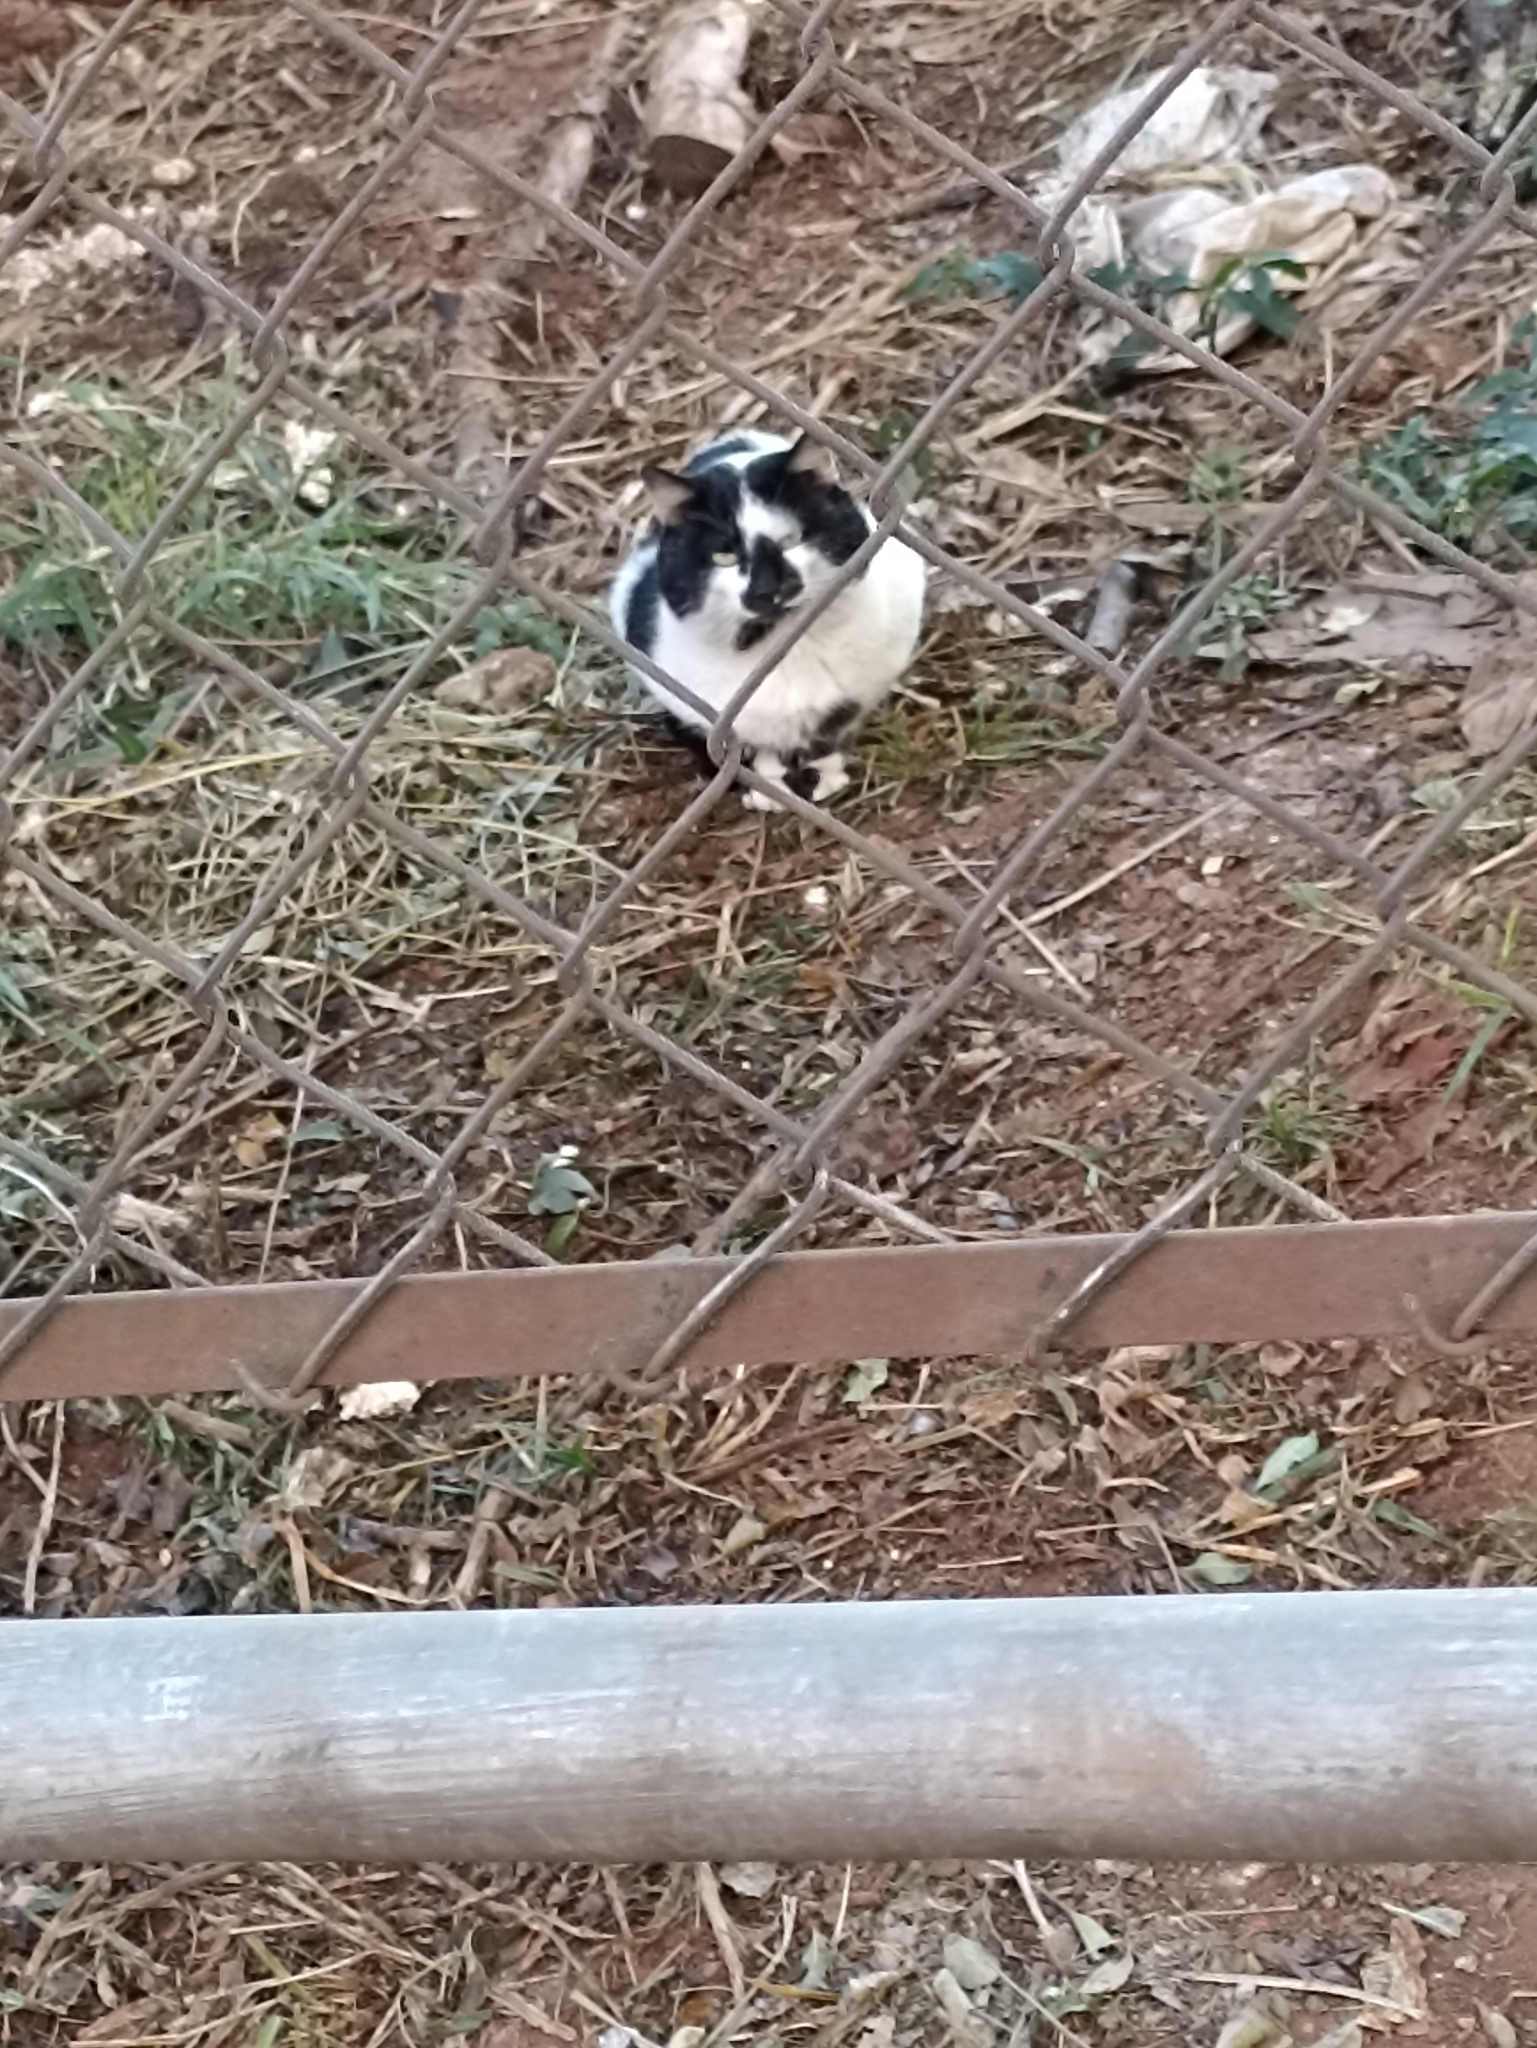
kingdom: Animalia
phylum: Chordata
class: Mammalia
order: Carnivora
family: Felidae
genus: Felis
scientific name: Felis catus
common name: Domestic cat
